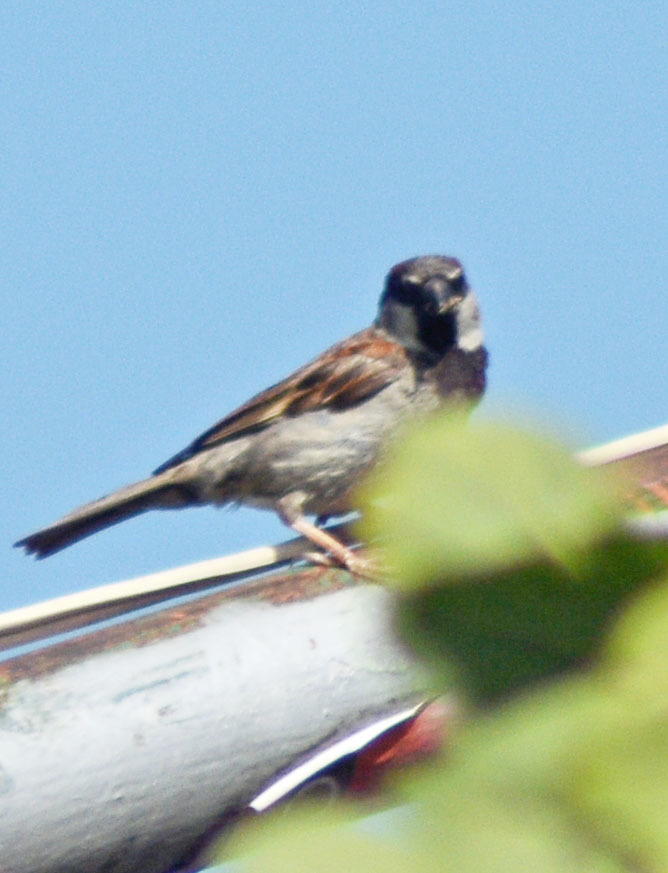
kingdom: Animalia
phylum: Chordata
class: Aves
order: Passeriformes
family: Passeridae
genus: Passer
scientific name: Passer domesticus
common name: House sparrow
